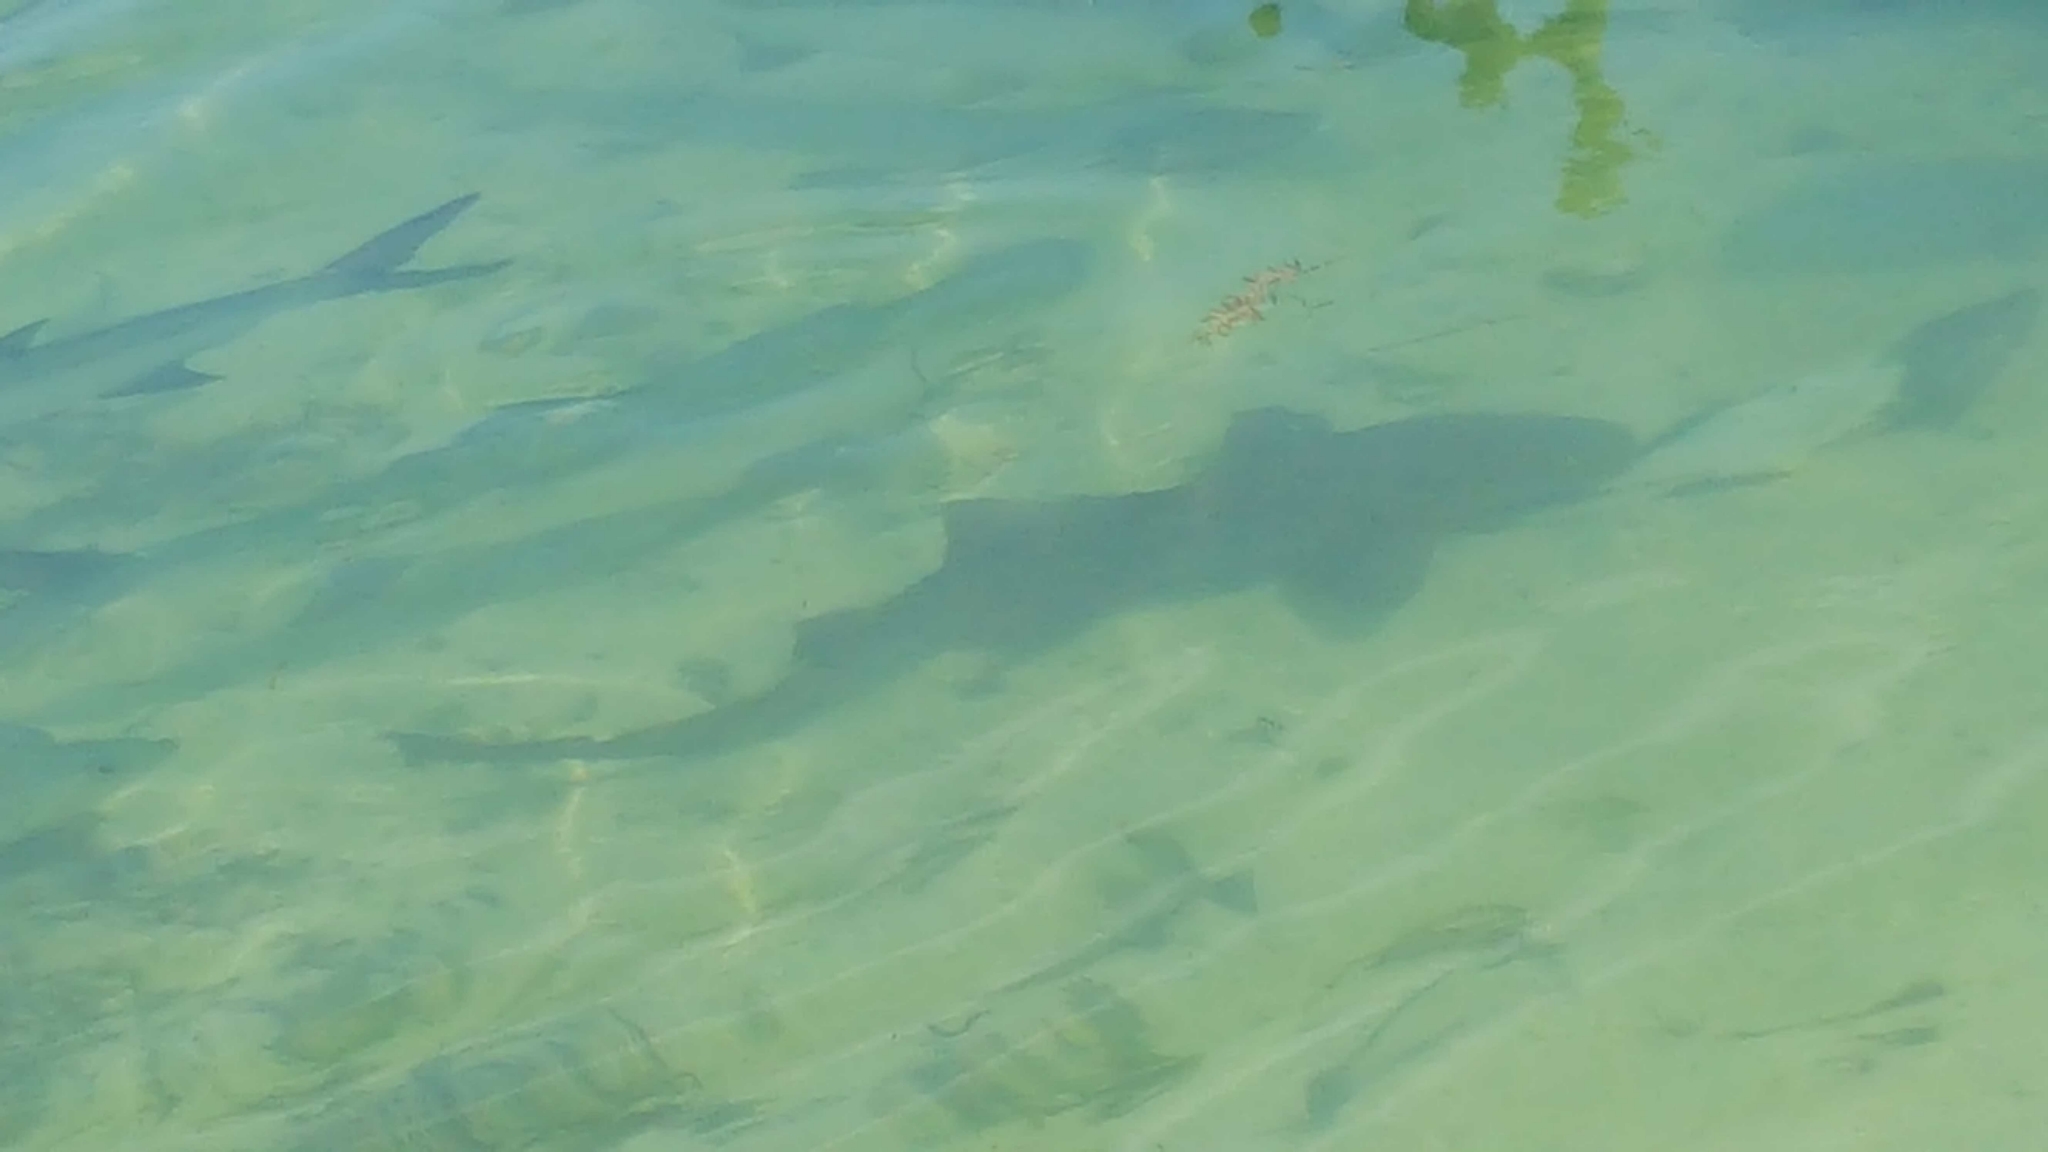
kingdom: Animalia
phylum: Chordata
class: Elasmobranchii
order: Orectolobiformes
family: Ginglymostomatidae
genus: Ginglymostoma
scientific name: Ginglymostoma cirratum
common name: Nurse shark
